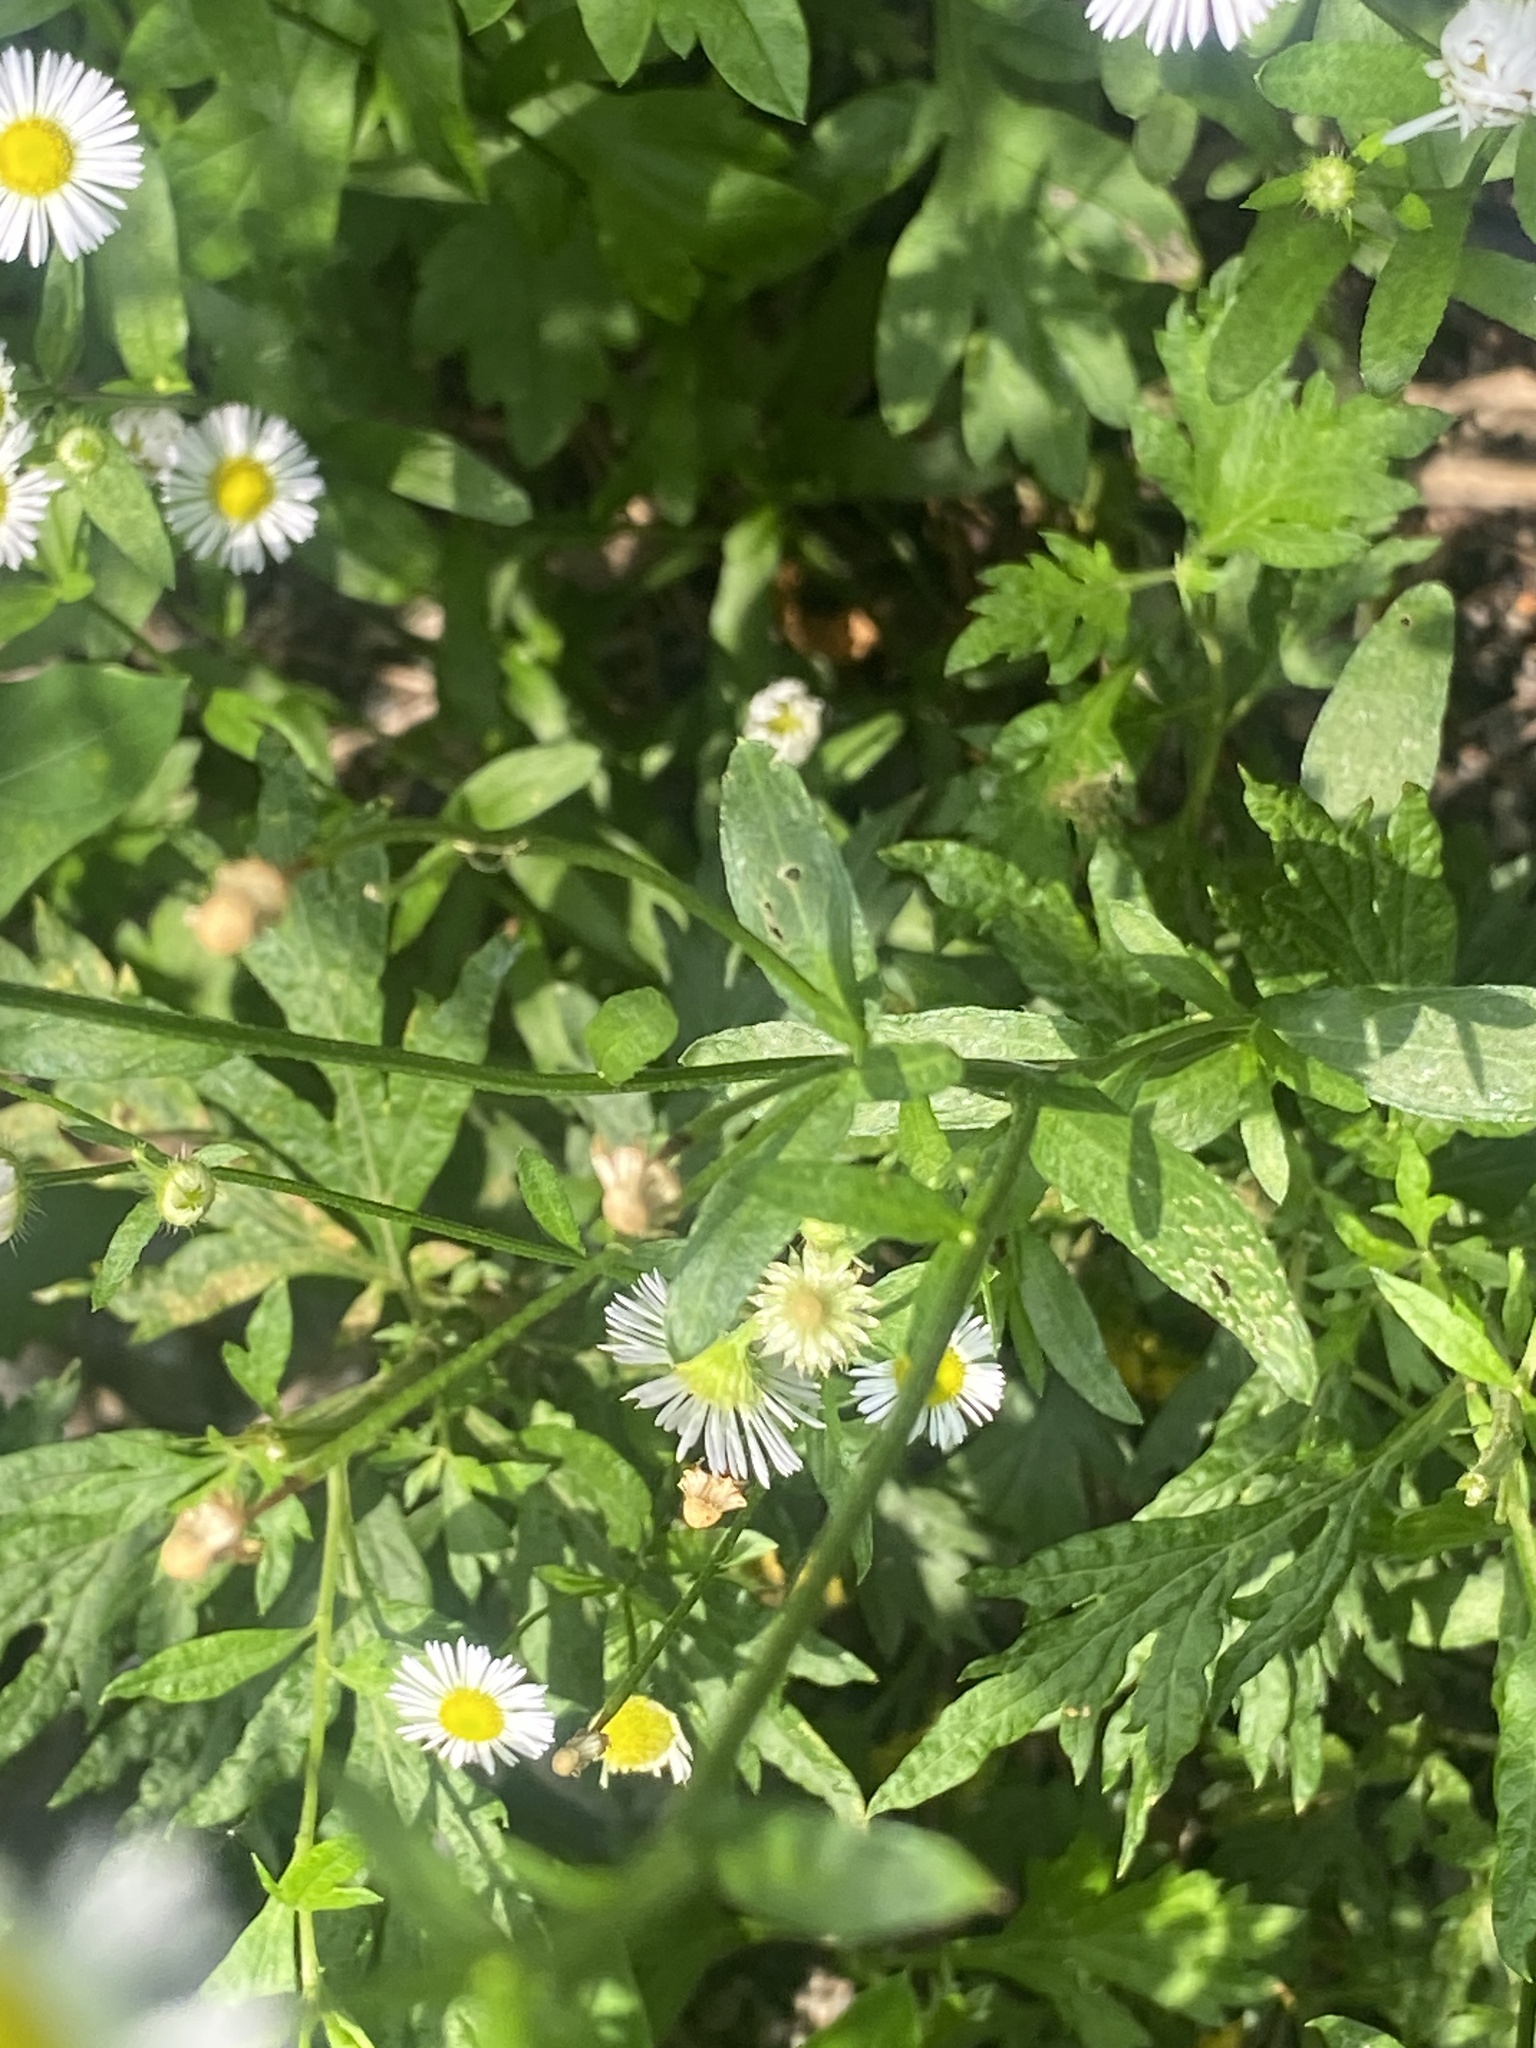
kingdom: Plantae
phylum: Tracheophyta
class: Magnoliopsida
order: Asterales
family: Asteraceae
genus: Erigeron
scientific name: Erigeron annuus
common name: Tall fleabane
